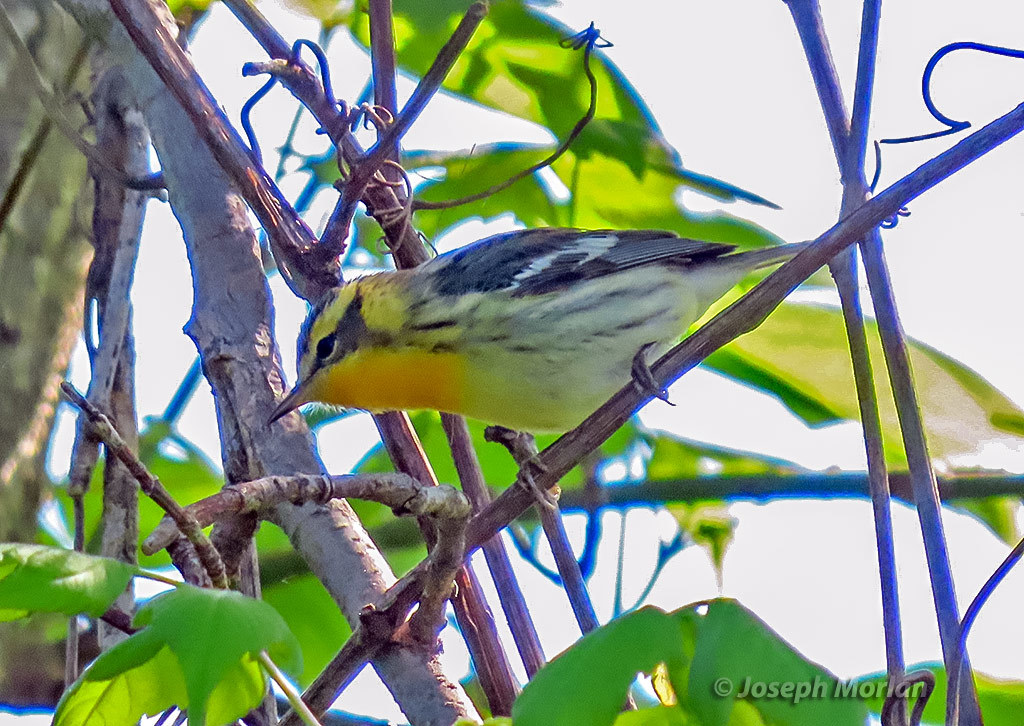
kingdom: Animalia
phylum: Chordata
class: Aves
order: Passeriformes
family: Parulidae
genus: Setophaga
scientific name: Setophaga fusca
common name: Blackburnian warbler
